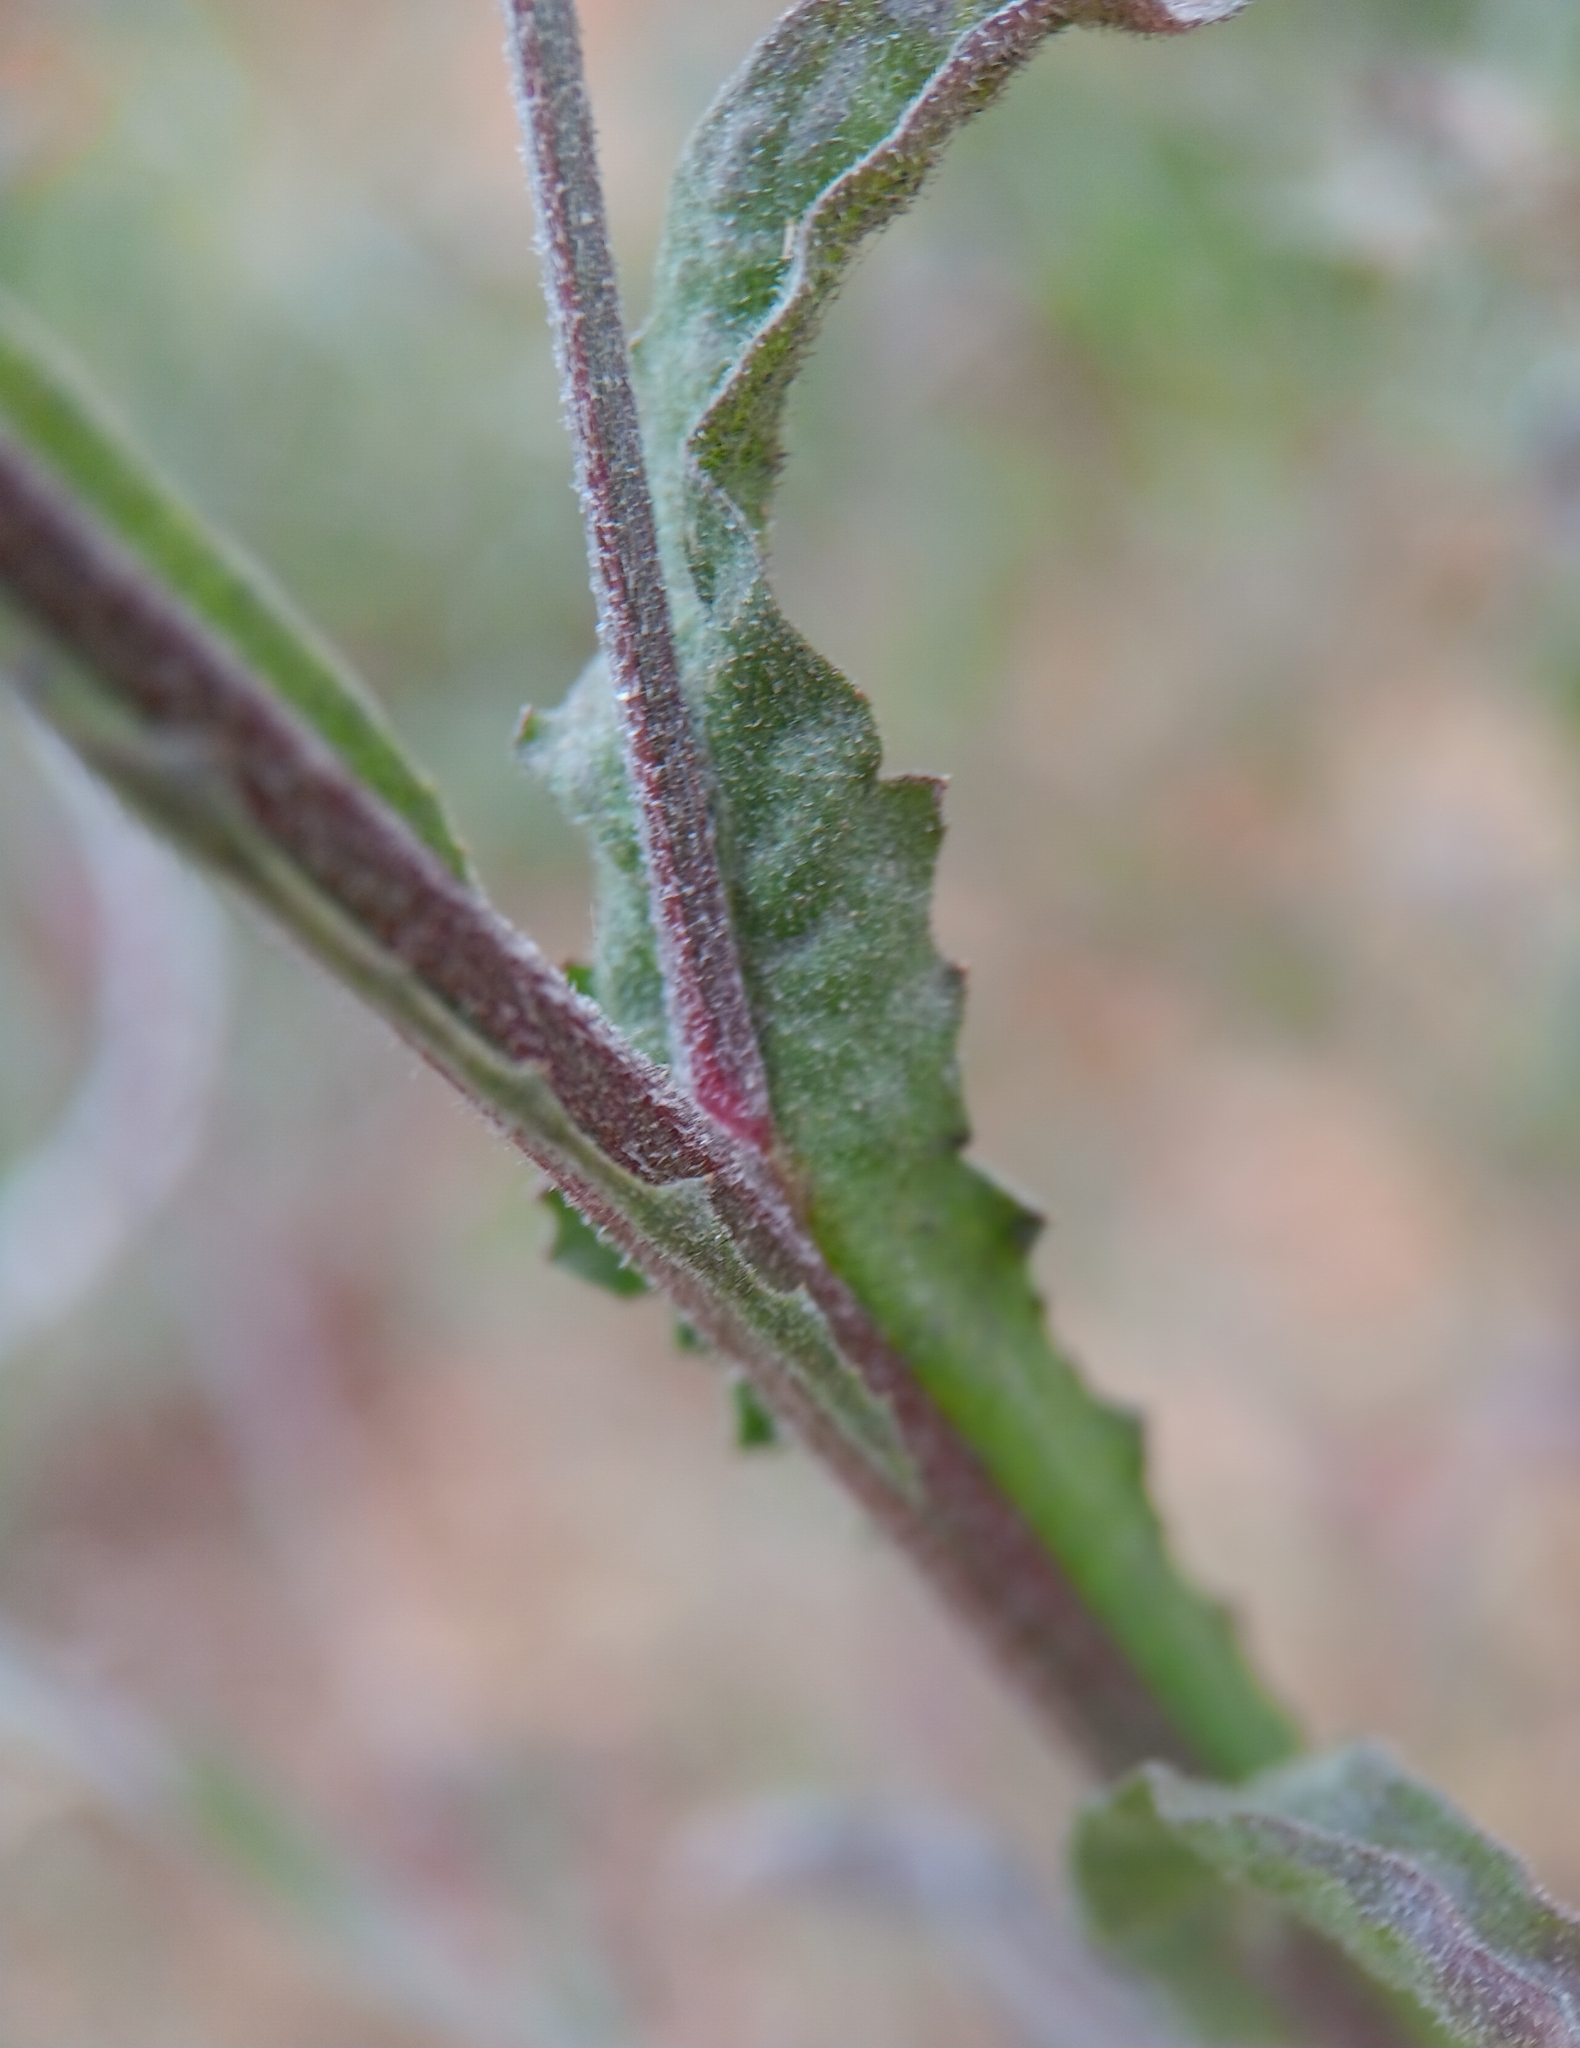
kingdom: Plantae
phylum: Tracheophyta
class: Magnoliopsida
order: Asterales
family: Asteraceae
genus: Centaurea
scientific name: Centaurea melitensis
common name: Maltese star-thistle
